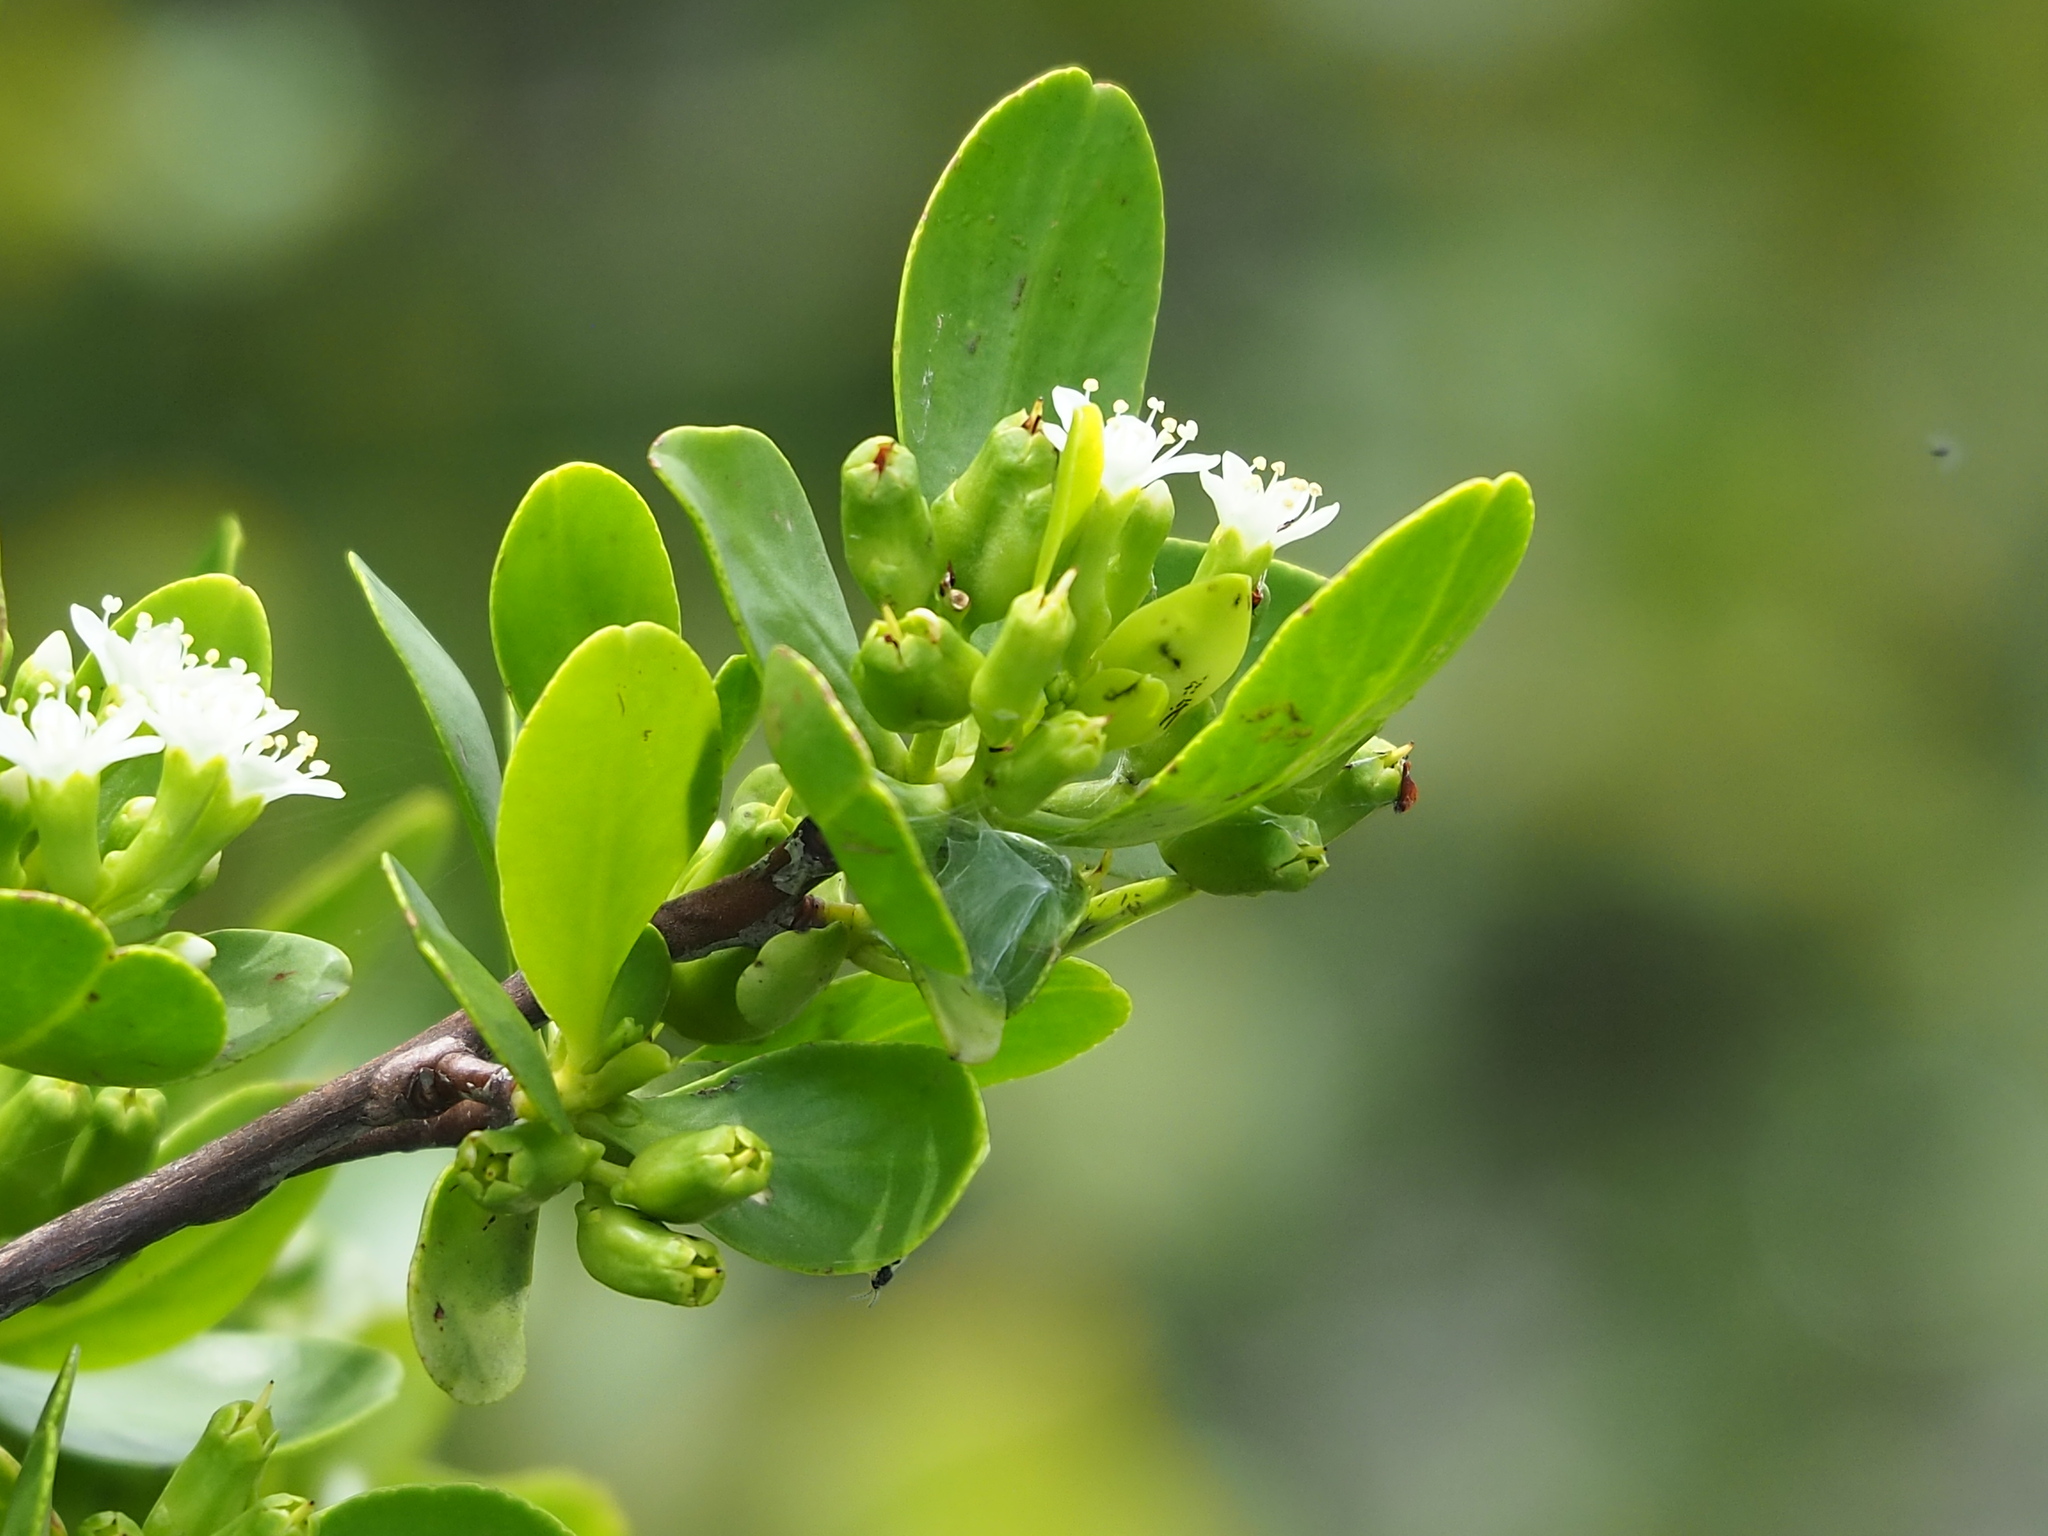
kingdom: Plantae
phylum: Tracheophyta
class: Magnoliopsida
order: Myrtales
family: Combretaceae
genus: Lumnitzera
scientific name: Lumnitzera racemosa
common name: White-flowered black mangrove
